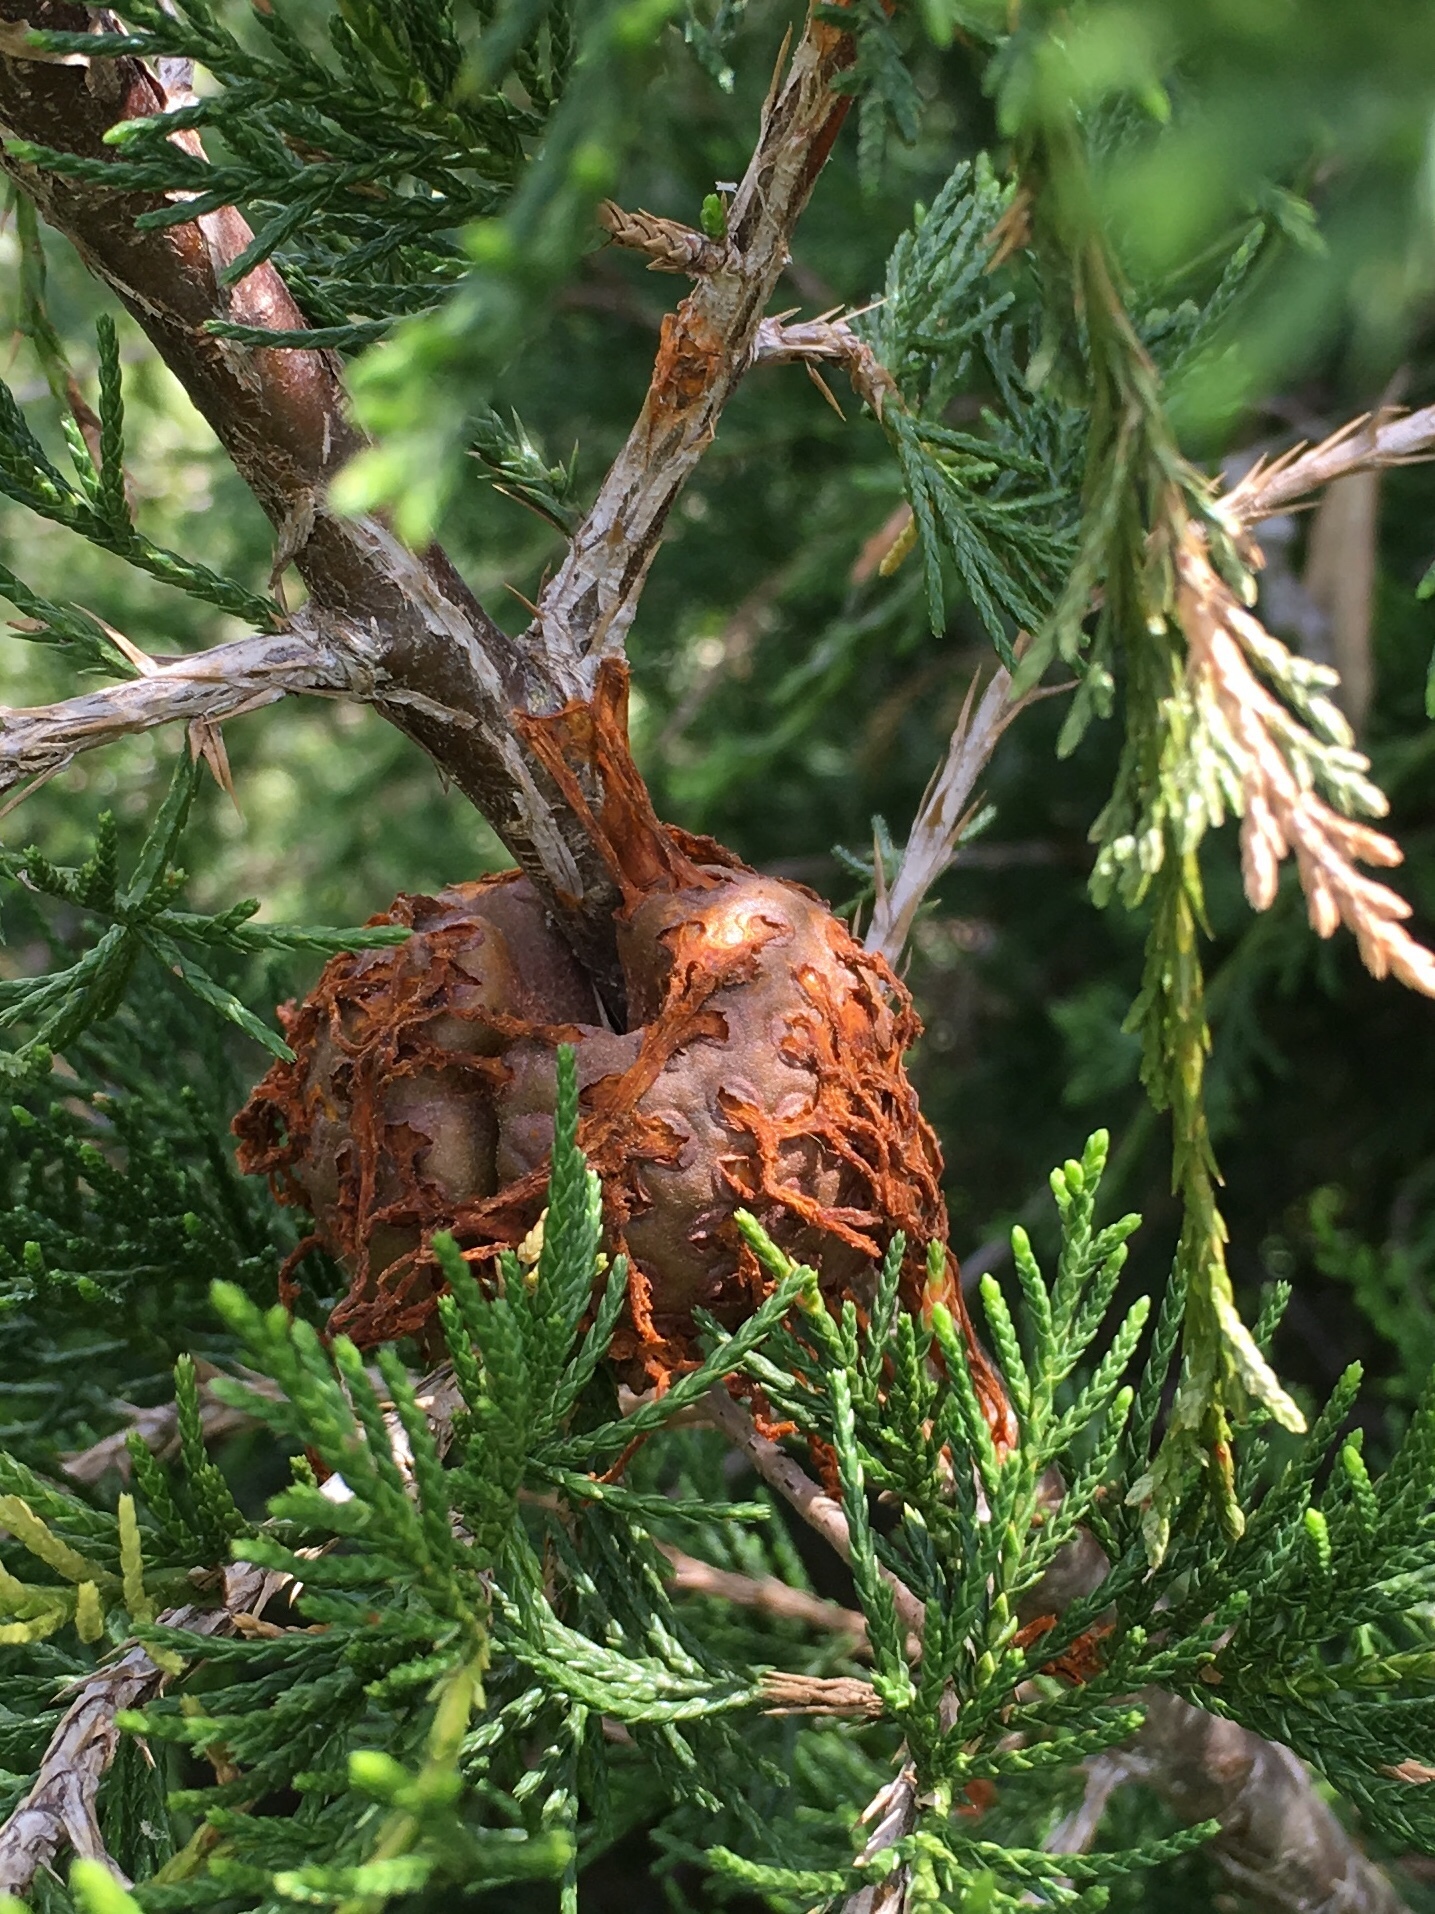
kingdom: Fungi
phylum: Basidiomycota
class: Pucciniomycetes
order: Pucciniales
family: Gymnosporangiaceae
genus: Gymnosporangium
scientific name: Gymnosporangium juniperi-virginianae
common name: Juniper-apple rust
